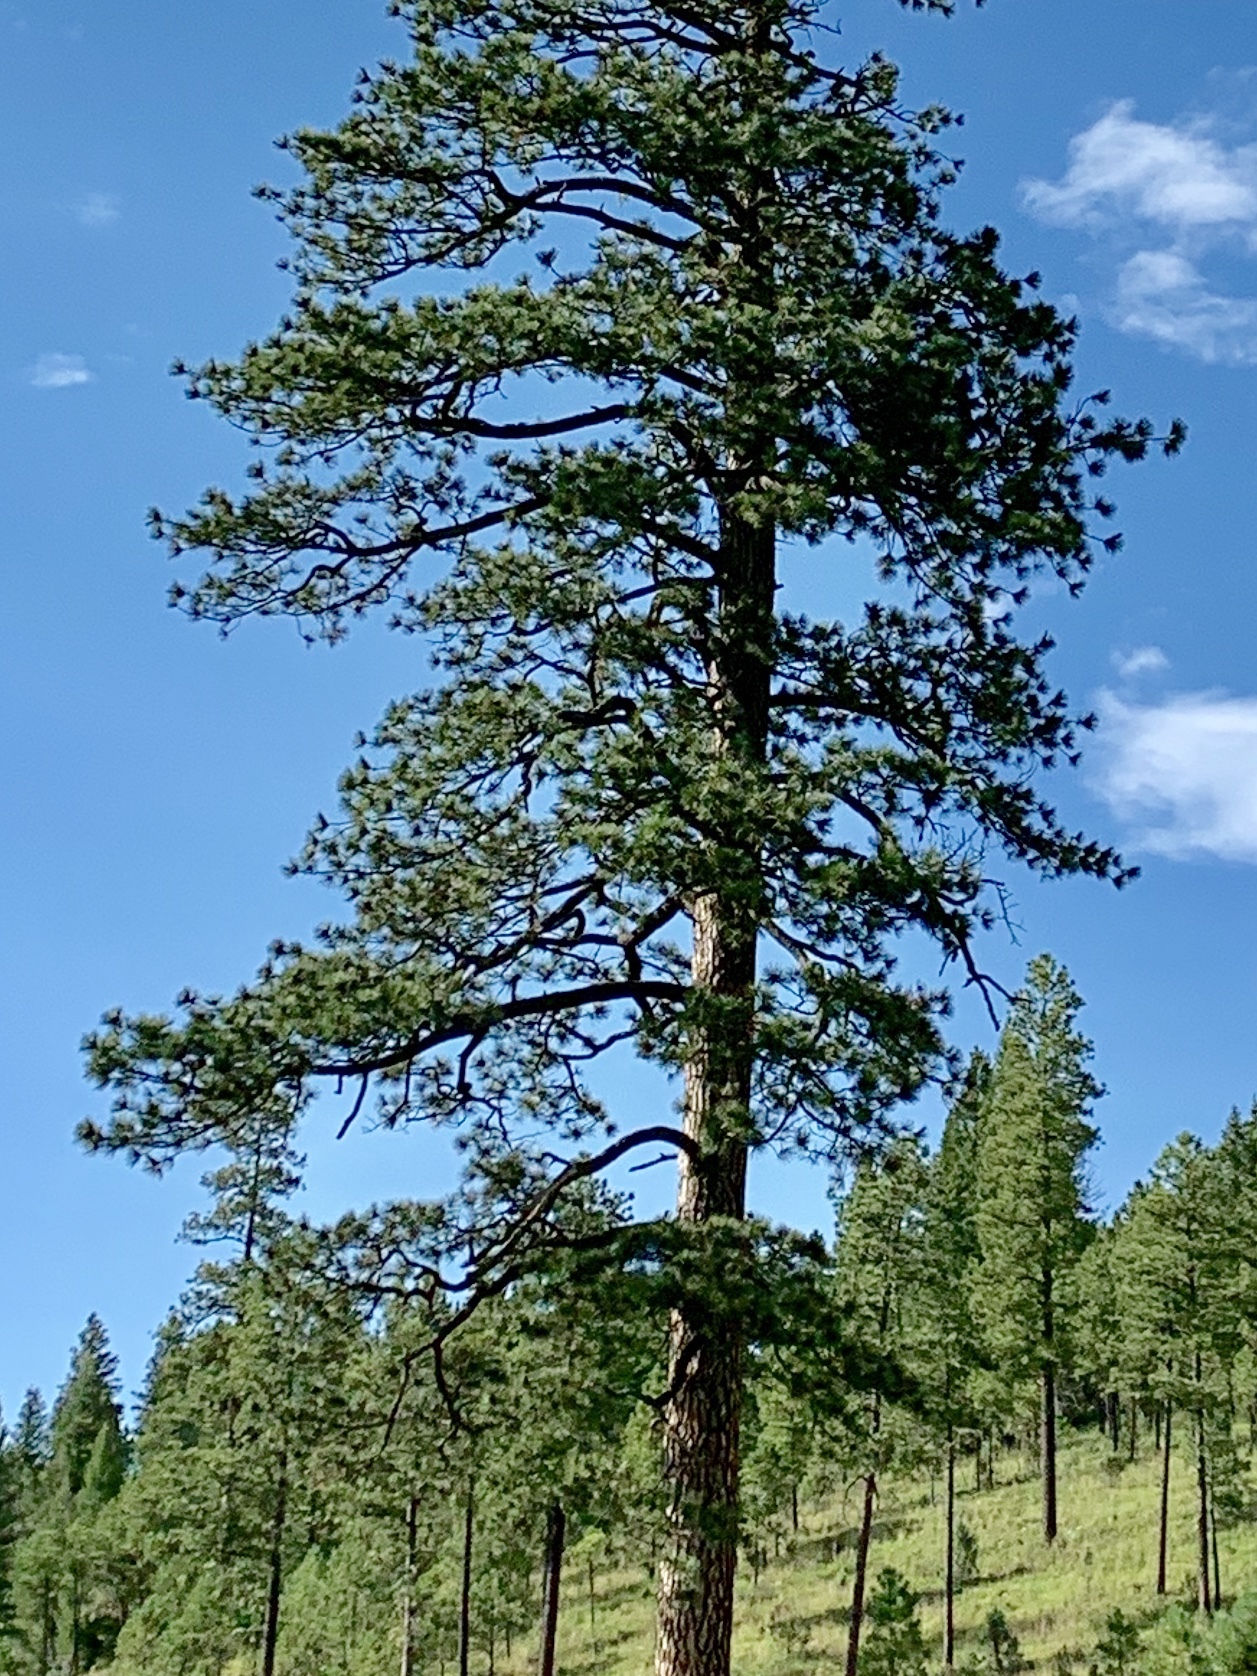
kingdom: Plantae
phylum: Tracheophyta
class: Pinopsida
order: Pinales
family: Pinaceae
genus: Pinus
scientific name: Pinus ponderosa
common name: Western yellow-pine
